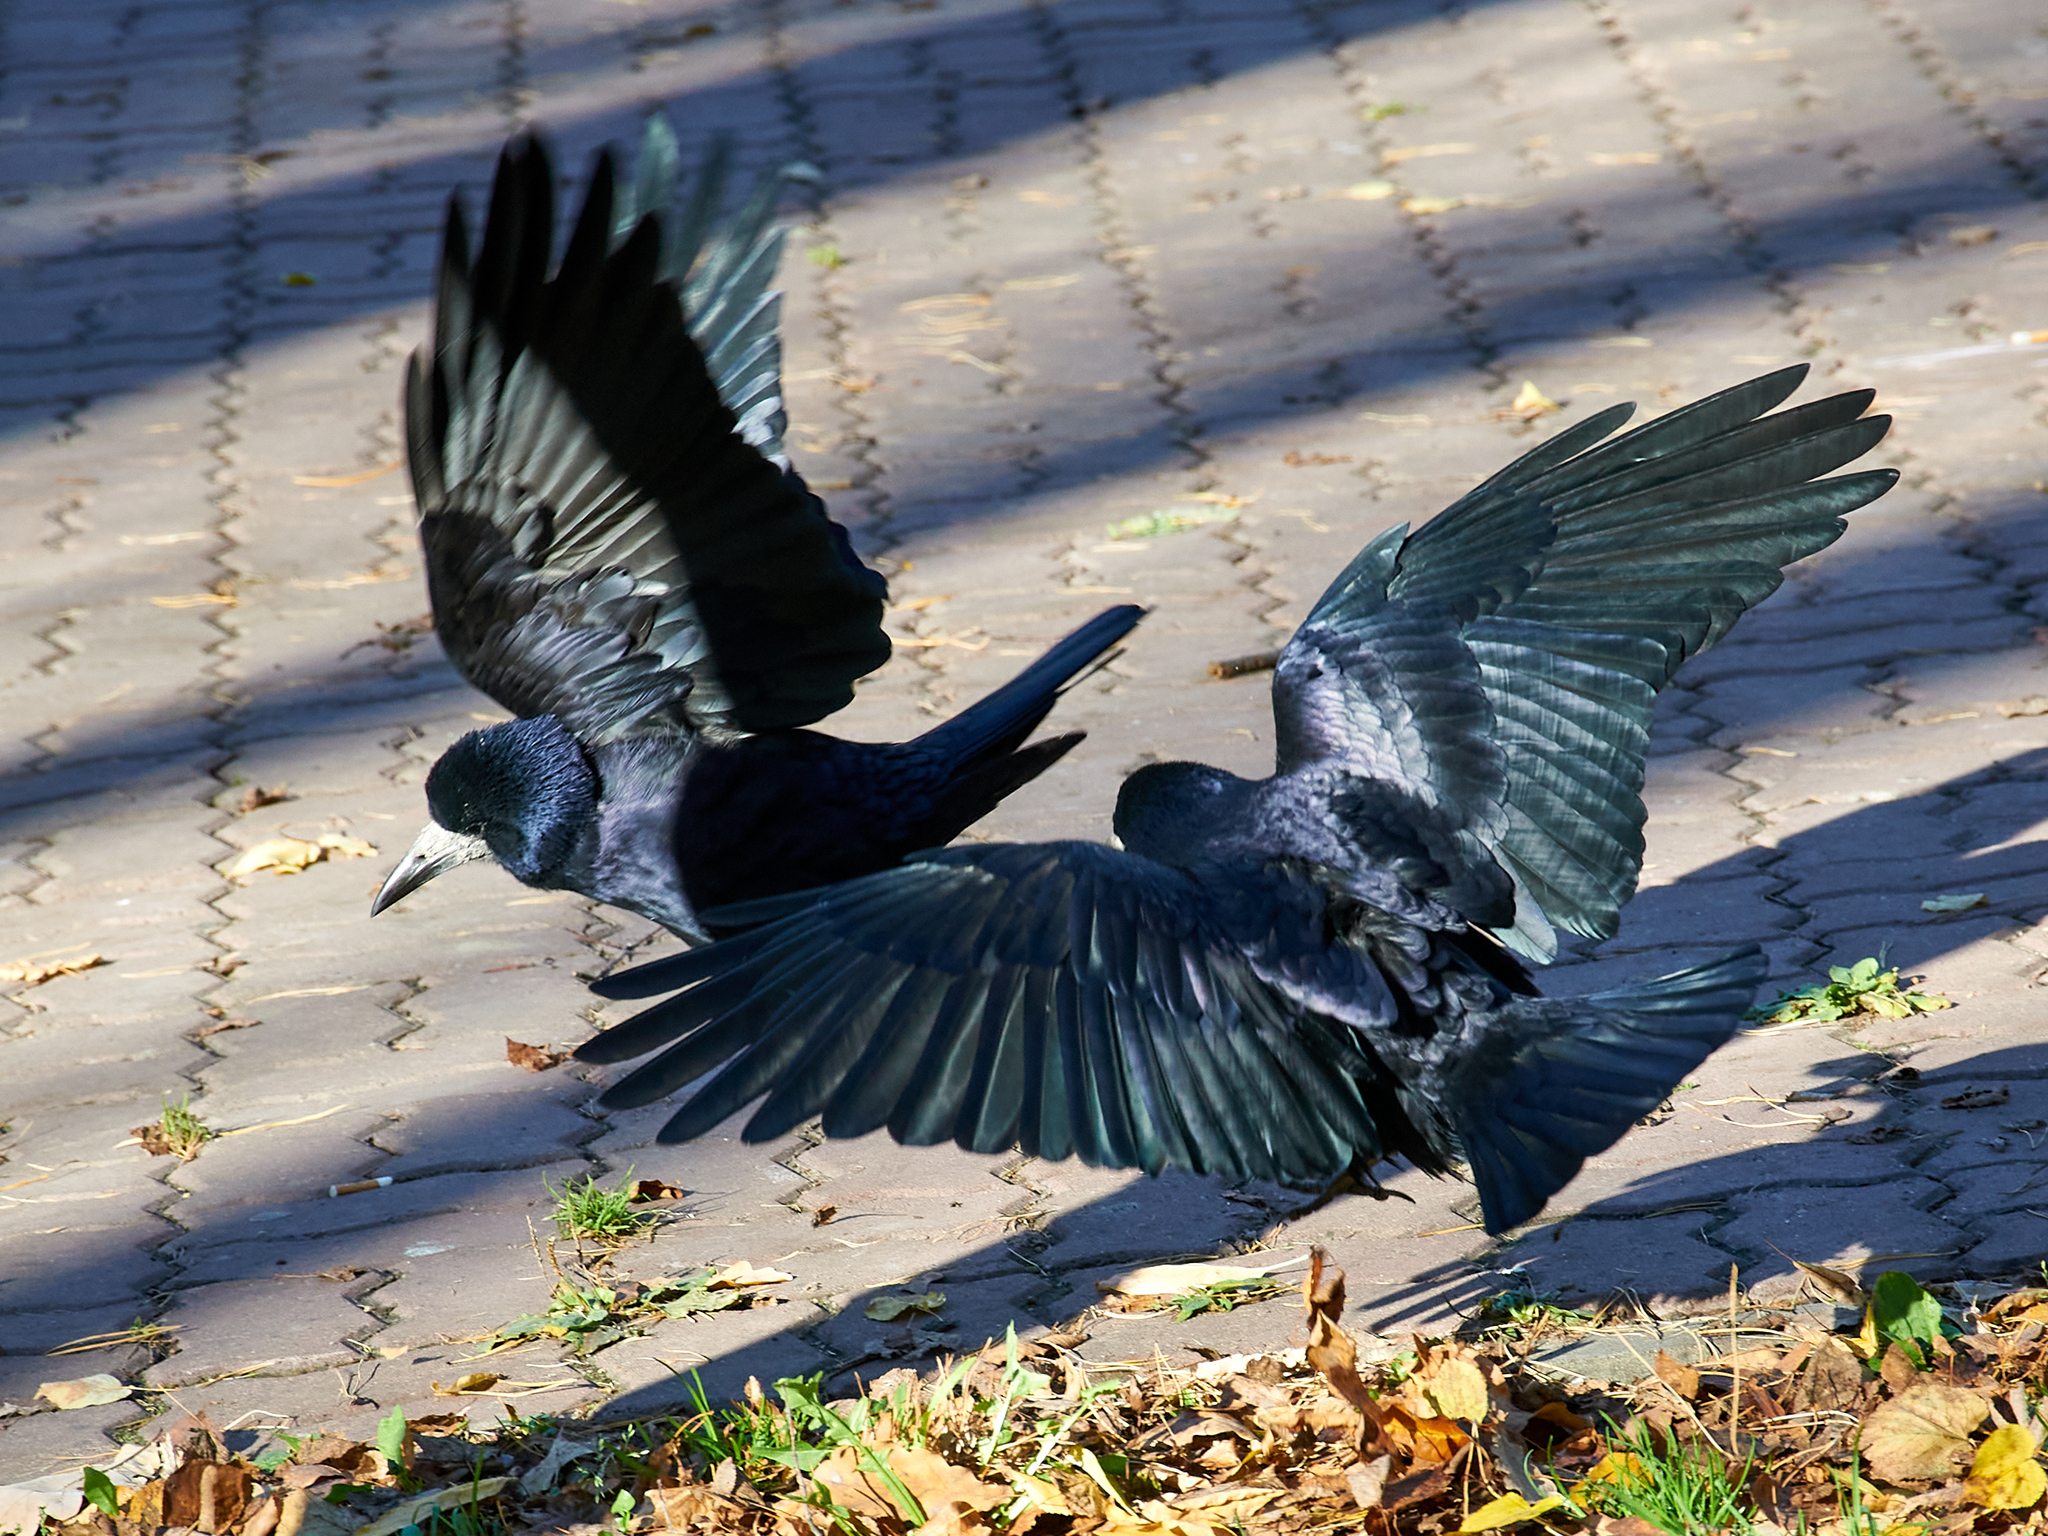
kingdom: Animalia
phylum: Chordata
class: Aves
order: Passeriformes
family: Corvidae
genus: Corvus
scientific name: Corvus frugilegus
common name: Rook
